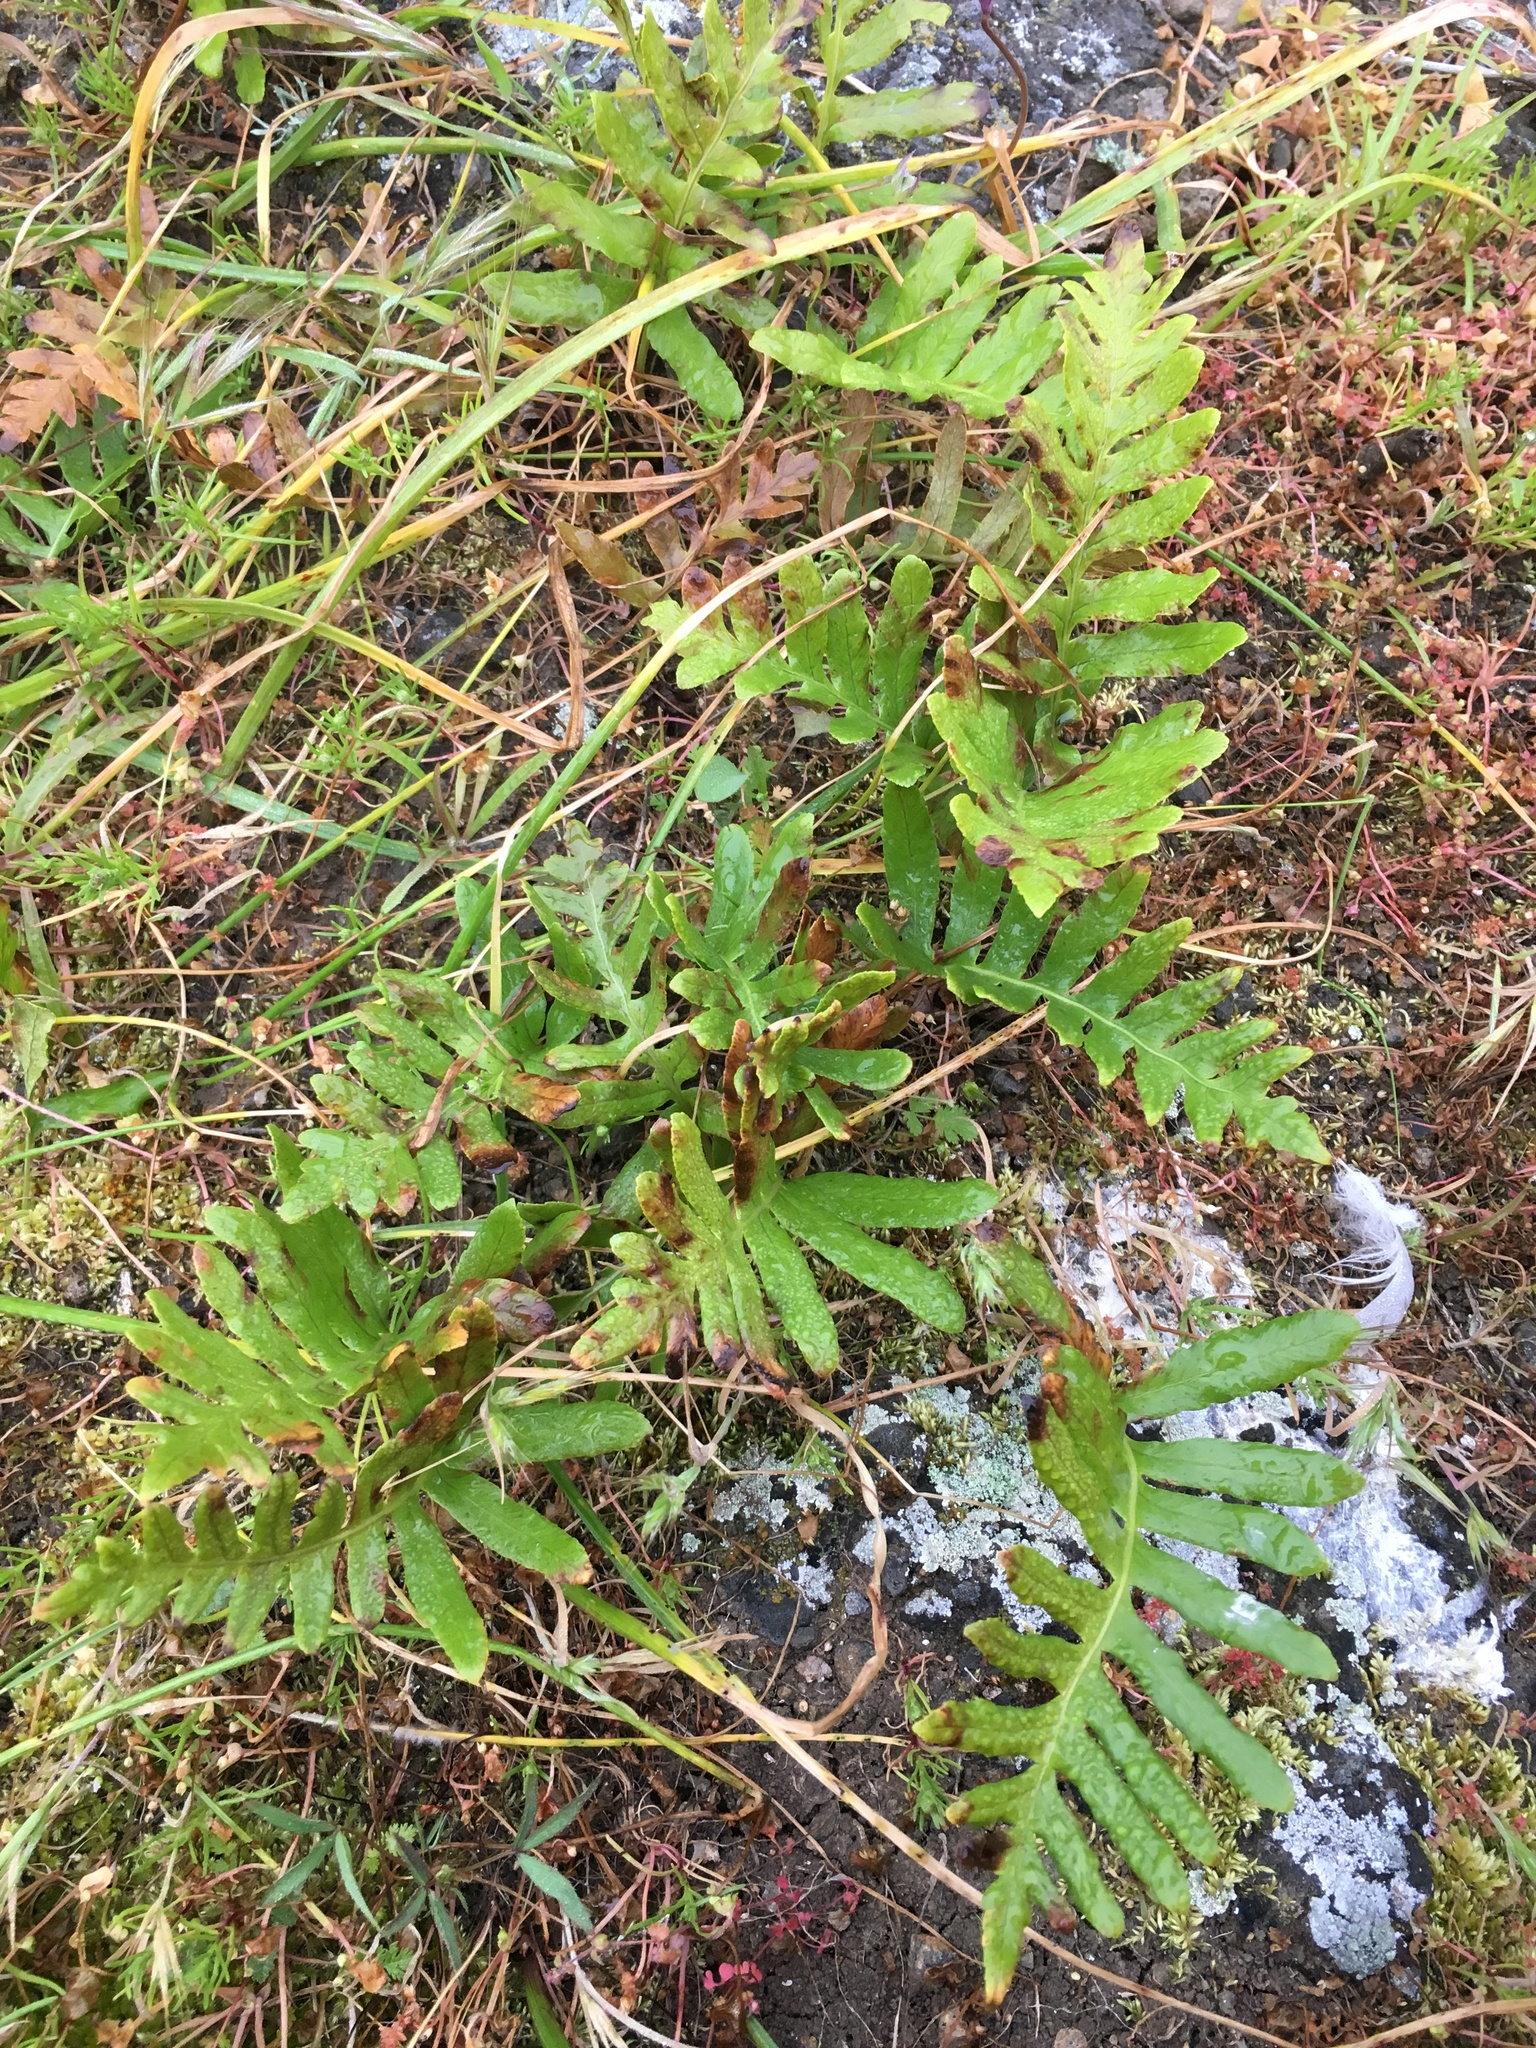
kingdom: Plantae
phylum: Tracheophyta
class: Polypodiopsida
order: Polypodiales
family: Polypodiaceae
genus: Polypodium
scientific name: Polypodium californicum
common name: California polypody
